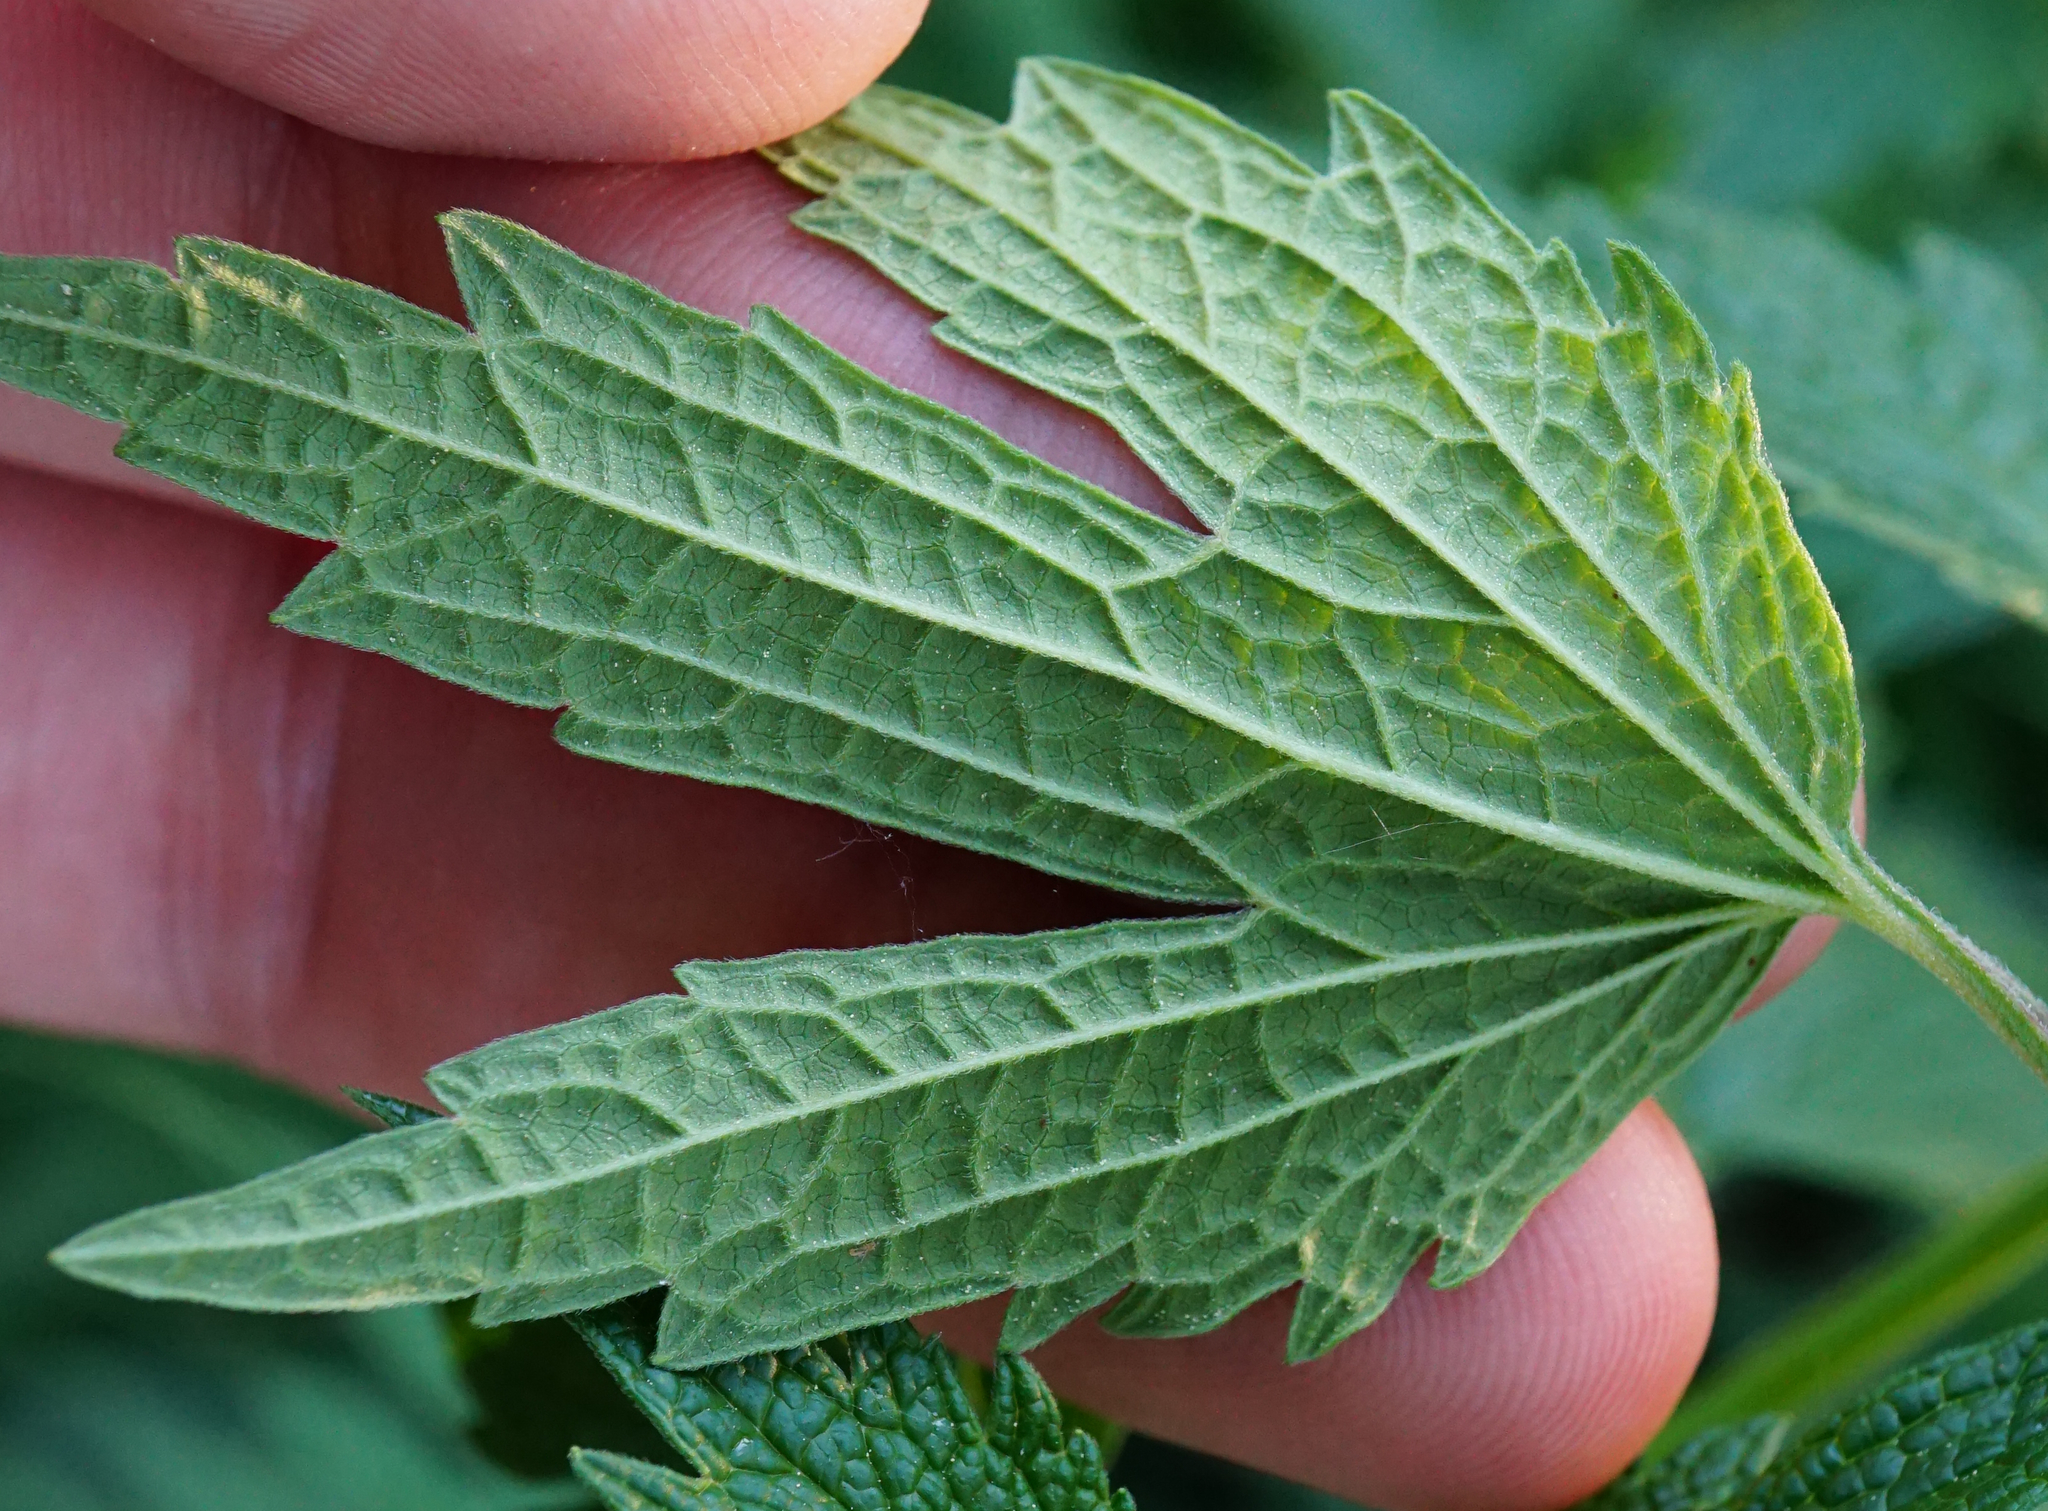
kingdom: Plantae
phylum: Tracheophyta
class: Magnoliopsida
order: Lamiales
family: Lamiaceae
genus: Leonurus
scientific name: Leonurus cardiaca
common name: Motherwort
